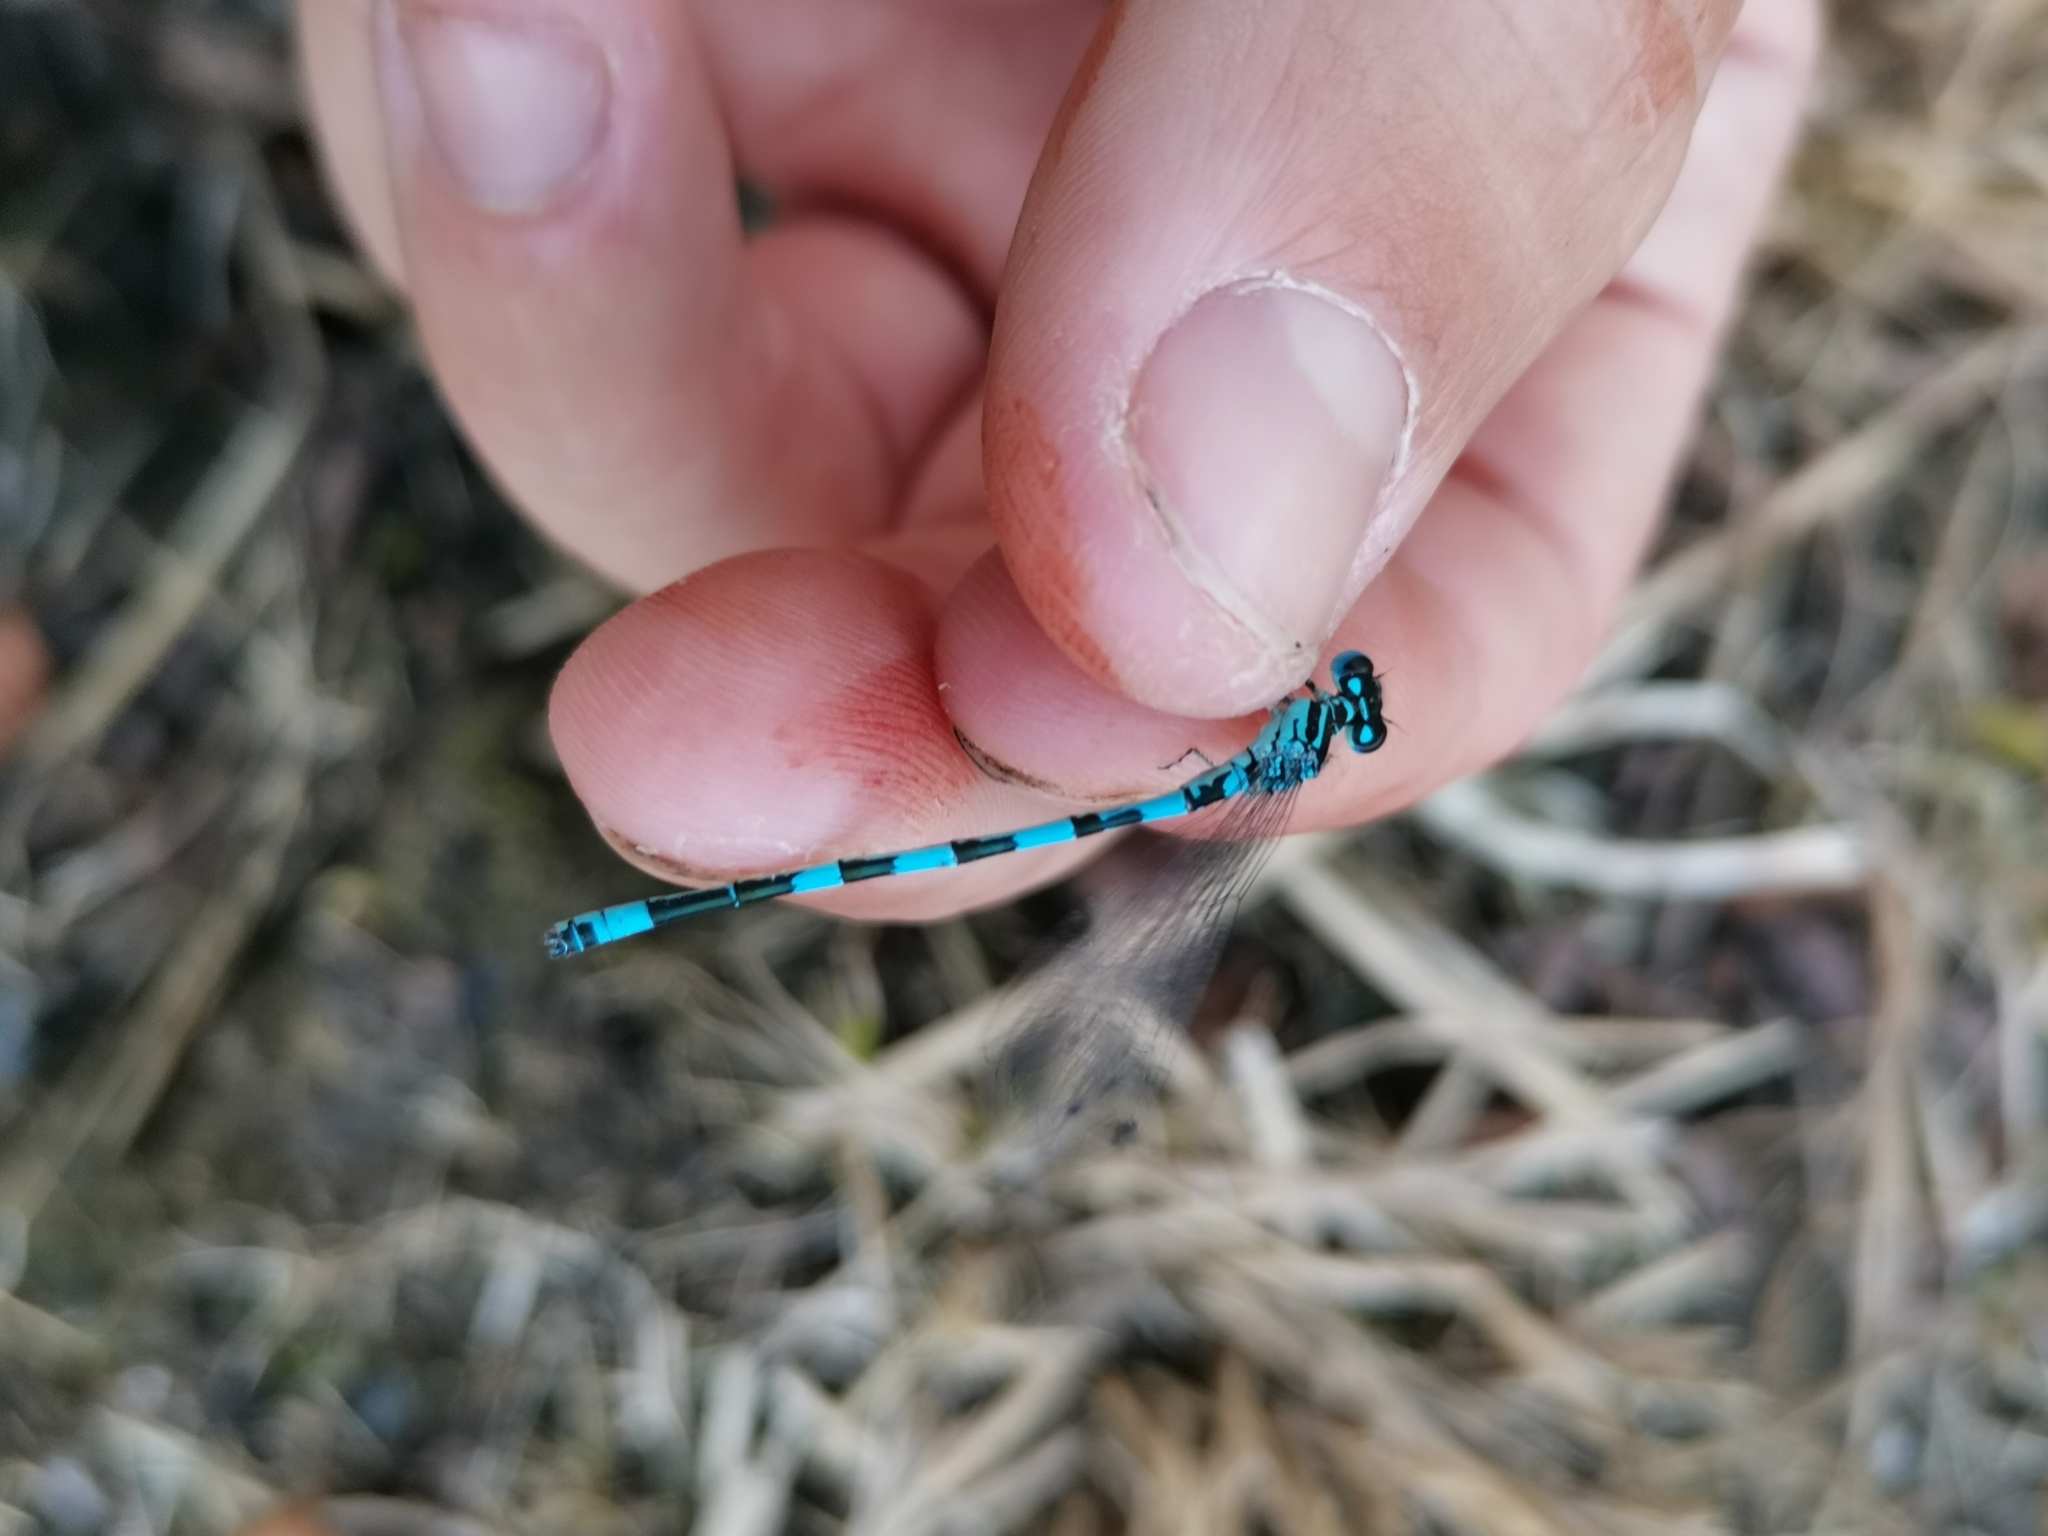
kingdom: Animalia
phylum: Arthropoda
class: Insecta
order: Odonata
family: Coenagrionidae
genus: Coenagrion
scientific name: Coenagrion mercuriale
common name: Southern damselfly
